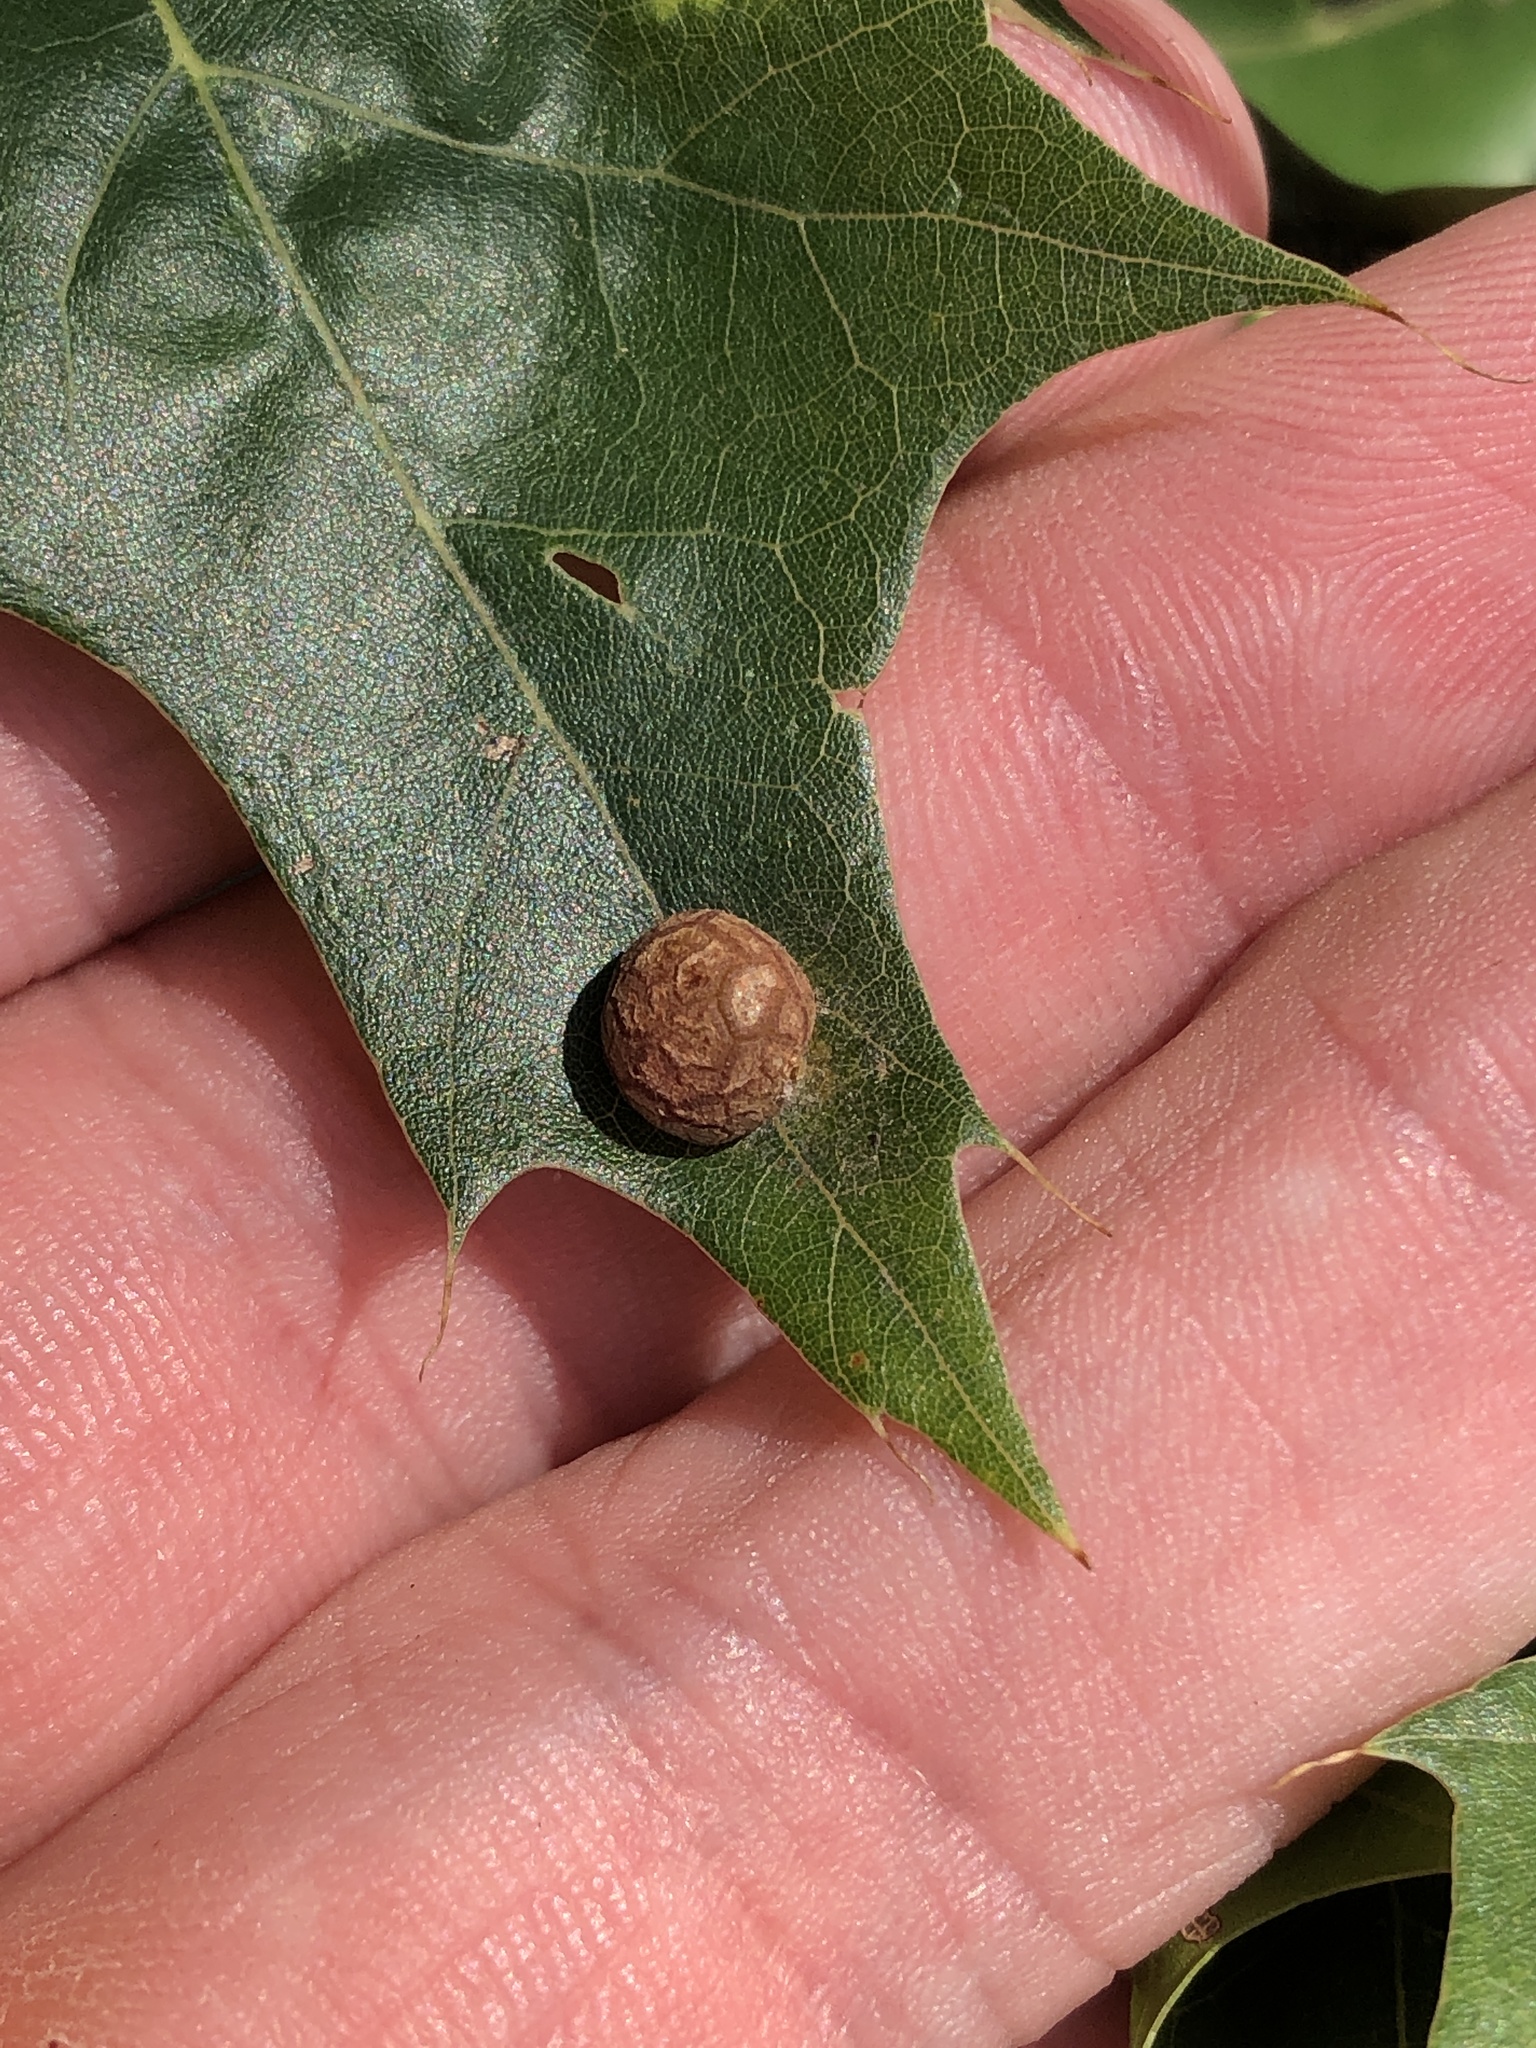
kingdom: Animalia
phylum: Arthropoda
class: Insecta
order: Diptera
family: Cecidomyiidae
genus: Polystepha
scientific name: Polystepha pilulae
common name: Oak leaf gall midge
